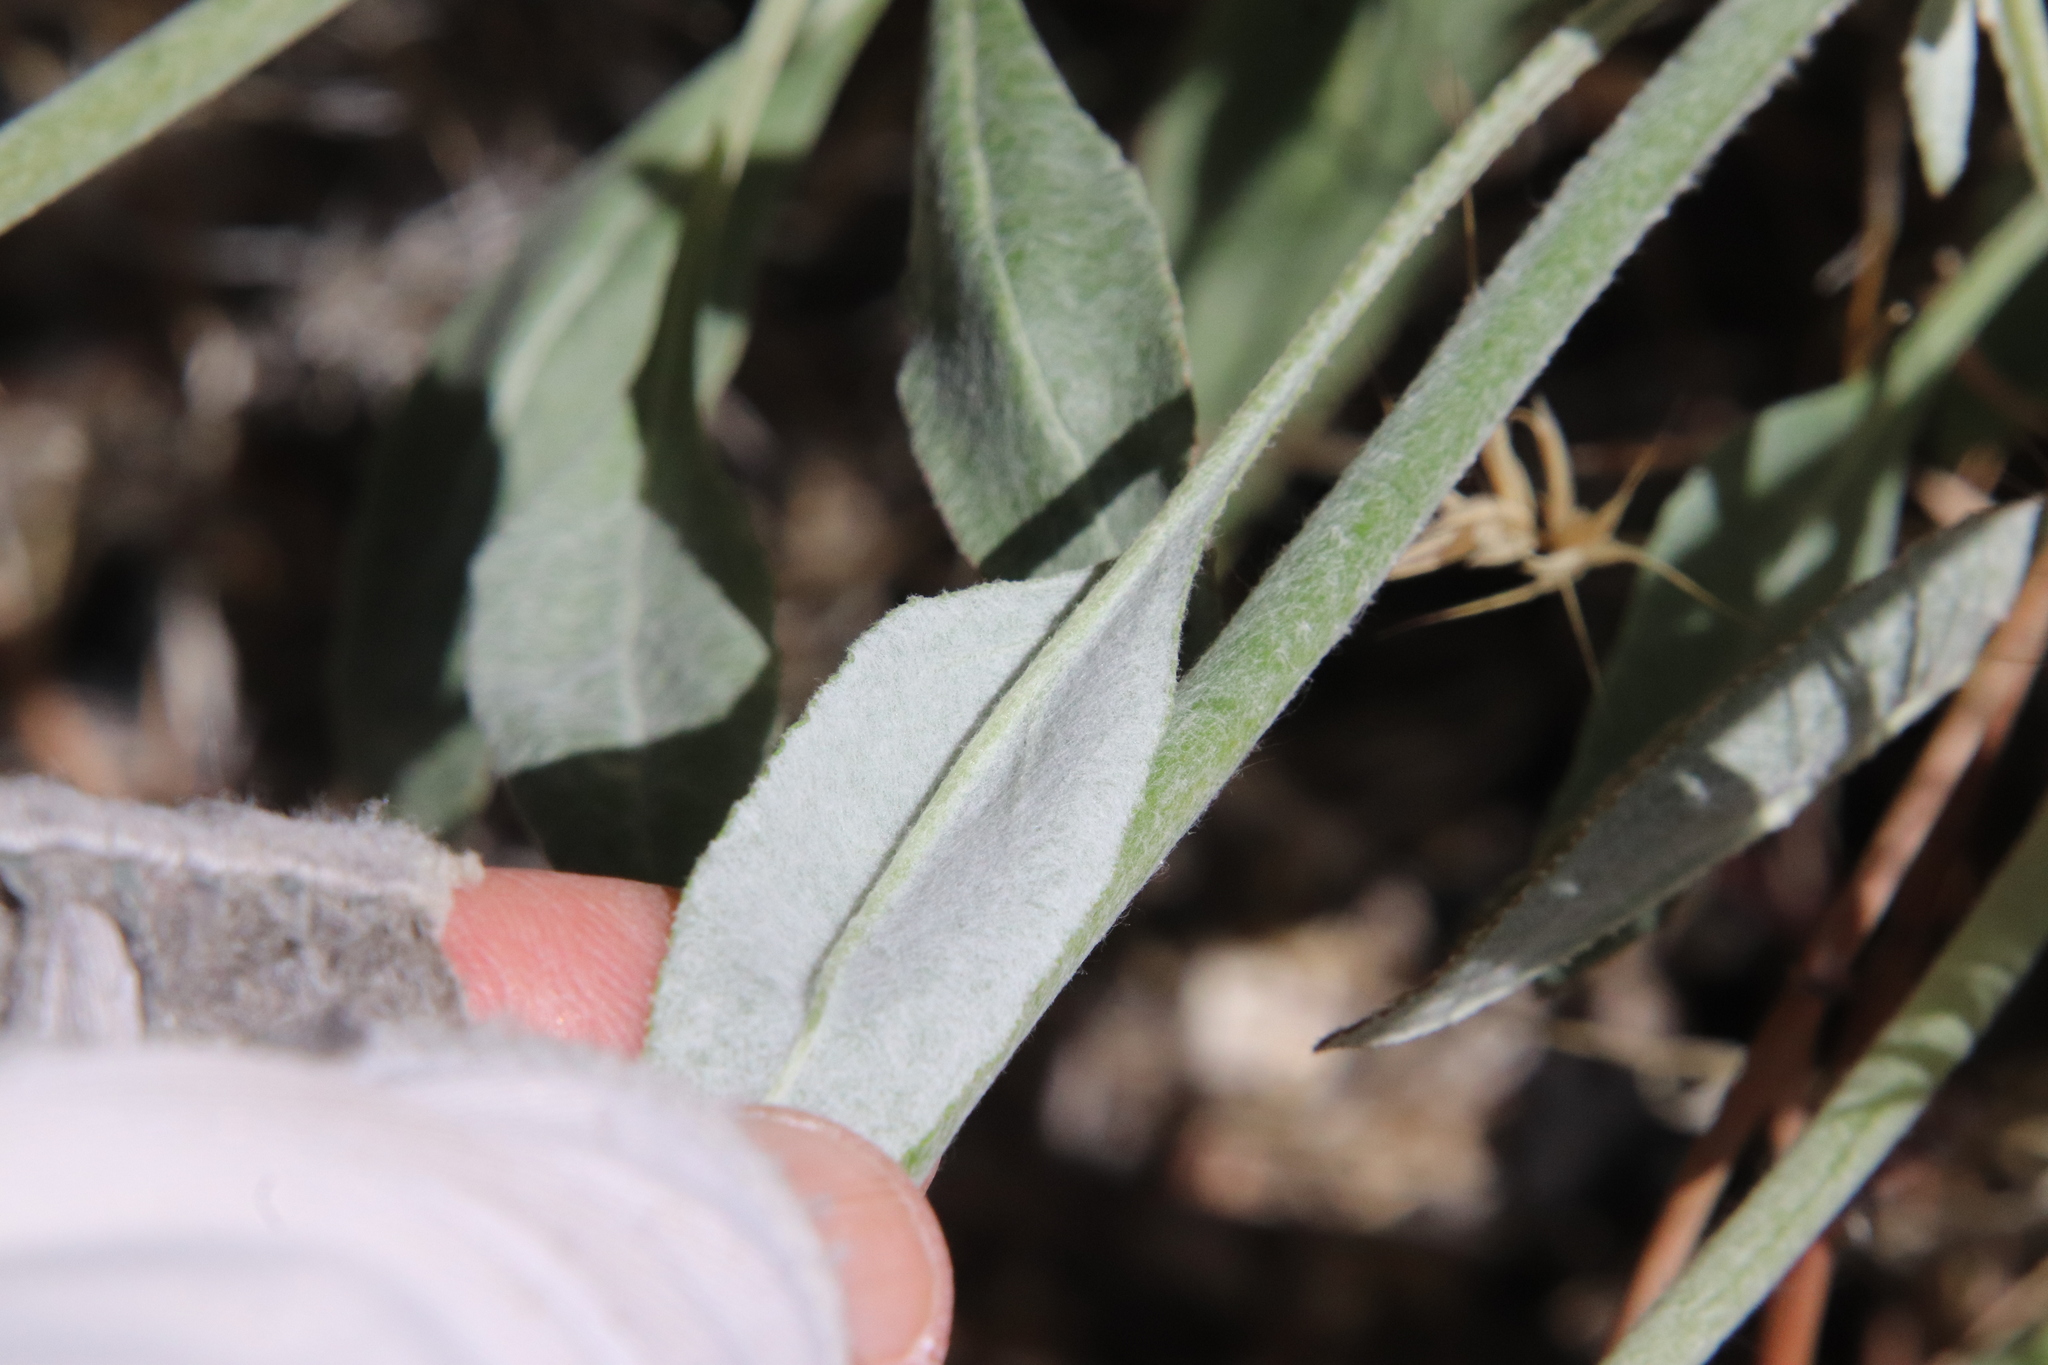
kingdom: Plantae
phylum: Tracheophyta
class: Magnoliopsida
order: Caryophyllales
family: Polygonaceae
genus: Eriogonum
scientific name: Eriogonum elongatum
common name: Long-stem wild buckwheat
